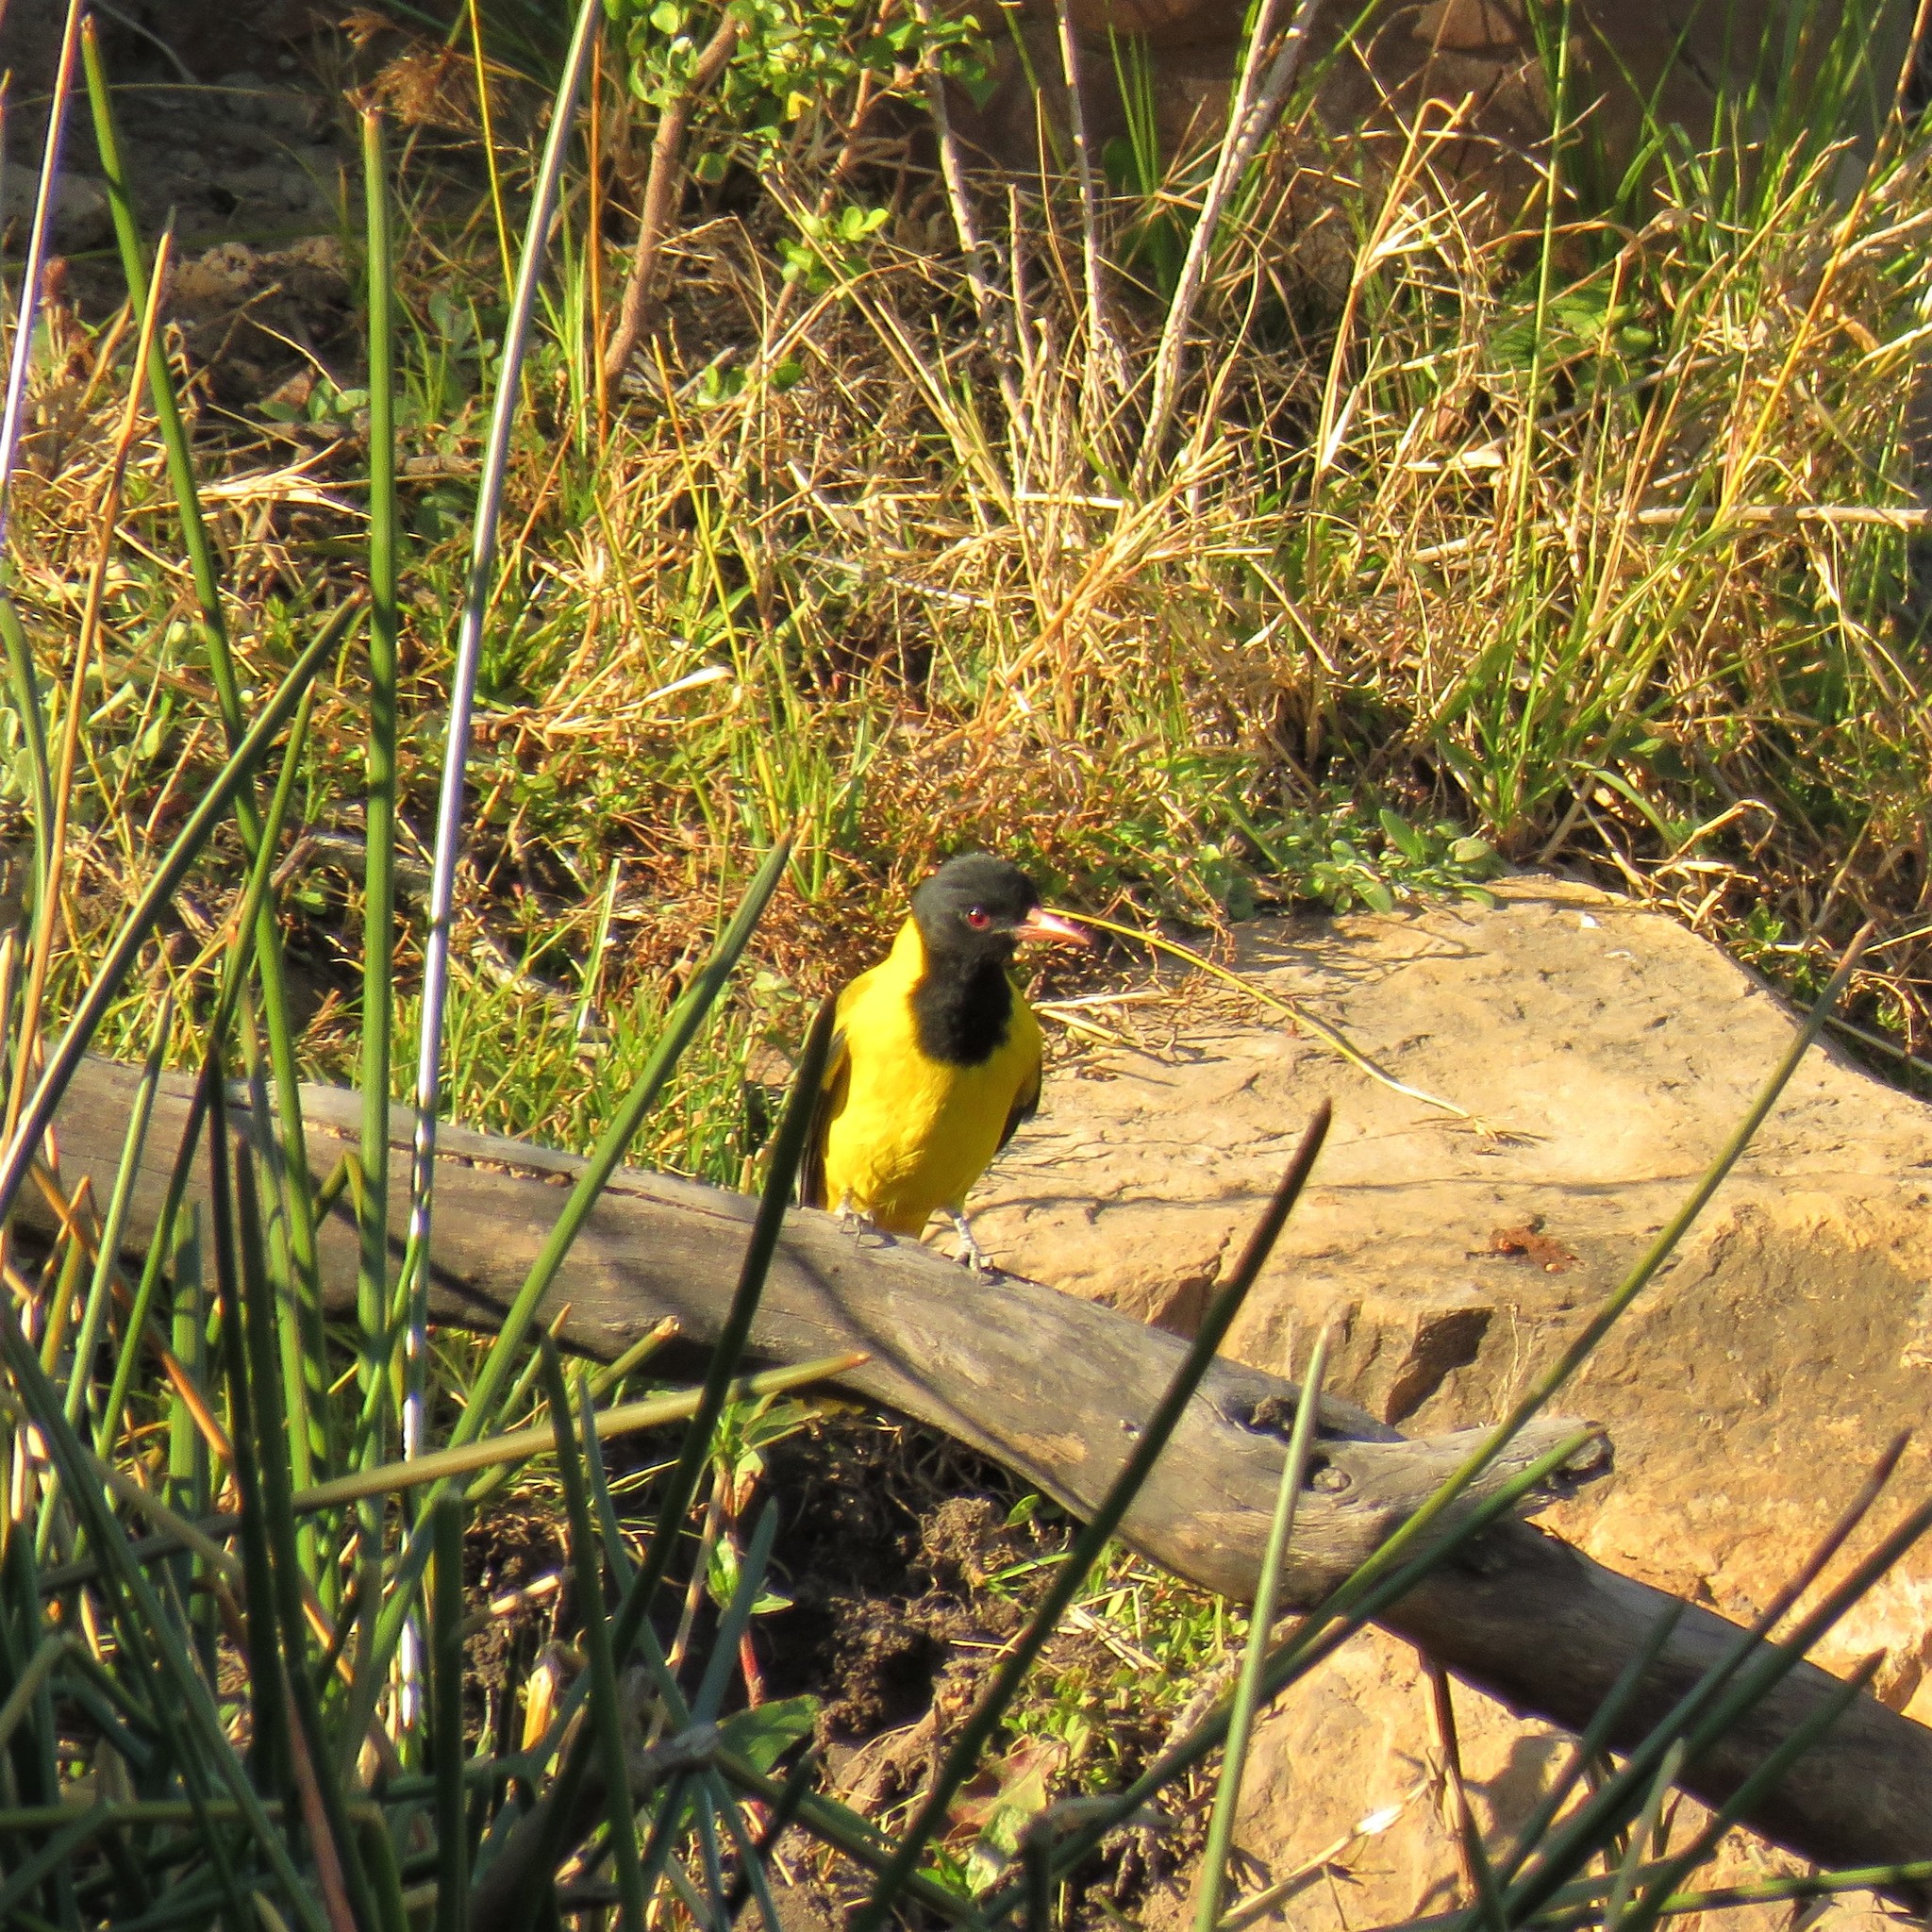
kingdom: Animalia
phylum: Chordata
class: Aves
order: Passeriformes
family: Oriolidae
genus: Oriolus
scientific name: Oriolus larvatus
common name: Black-headed oriole
